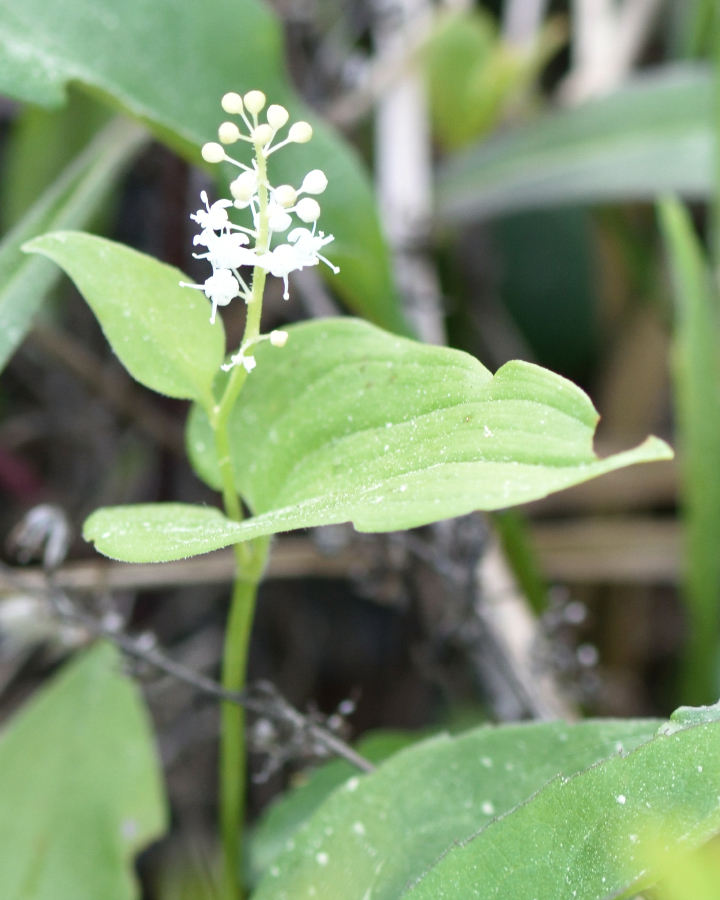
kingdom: Plantae
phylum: Tracheophyta
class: Liliopsida
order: Asparagales
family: Asparagaceae
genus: Maianthemum
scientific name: Maianthemum bifolium
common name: May lily
